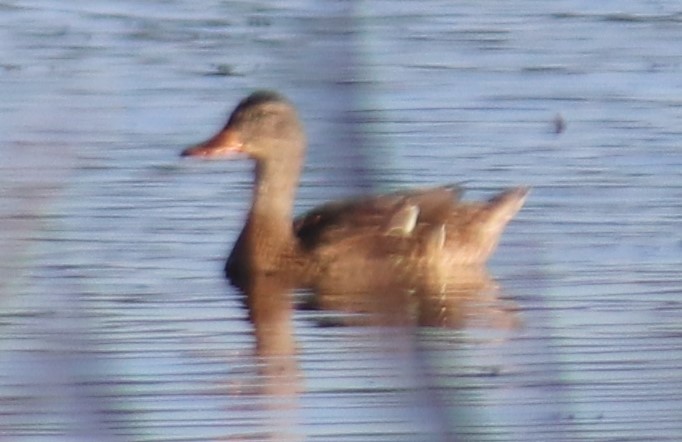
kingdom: Animalia
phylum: Chordata
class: Aves
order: Anseriformes
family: Anatidae
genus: Anas
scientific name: Anas platyrhynchos
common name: Mallard
